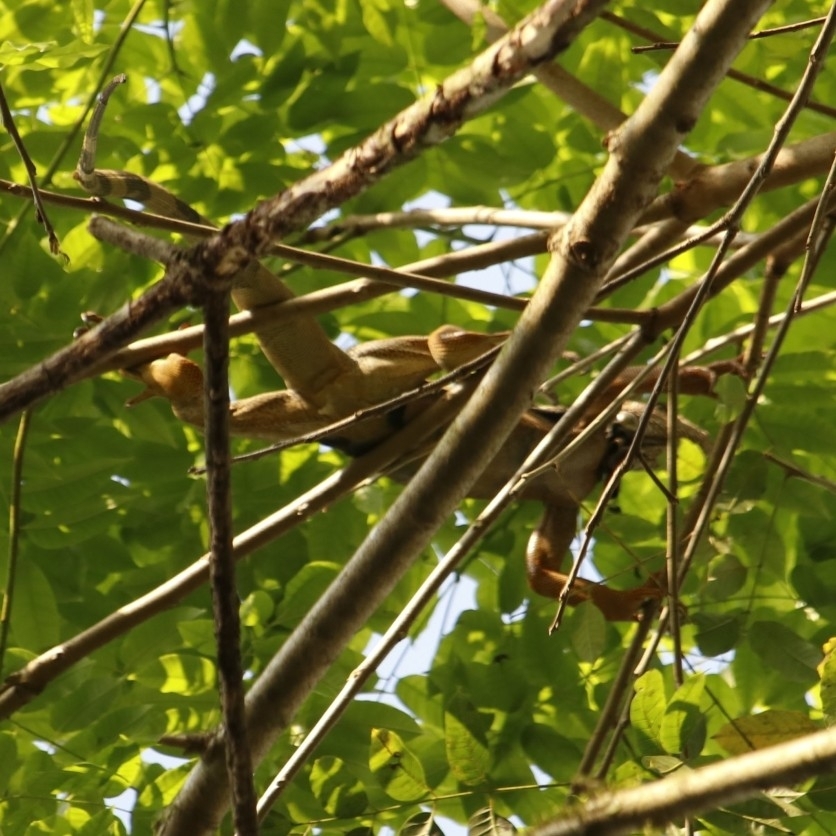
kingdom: Animalia
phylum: Chordata
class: Squamata
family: Iguanidae
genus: Iguana
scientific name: Iguana iguana
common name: Green iguana
